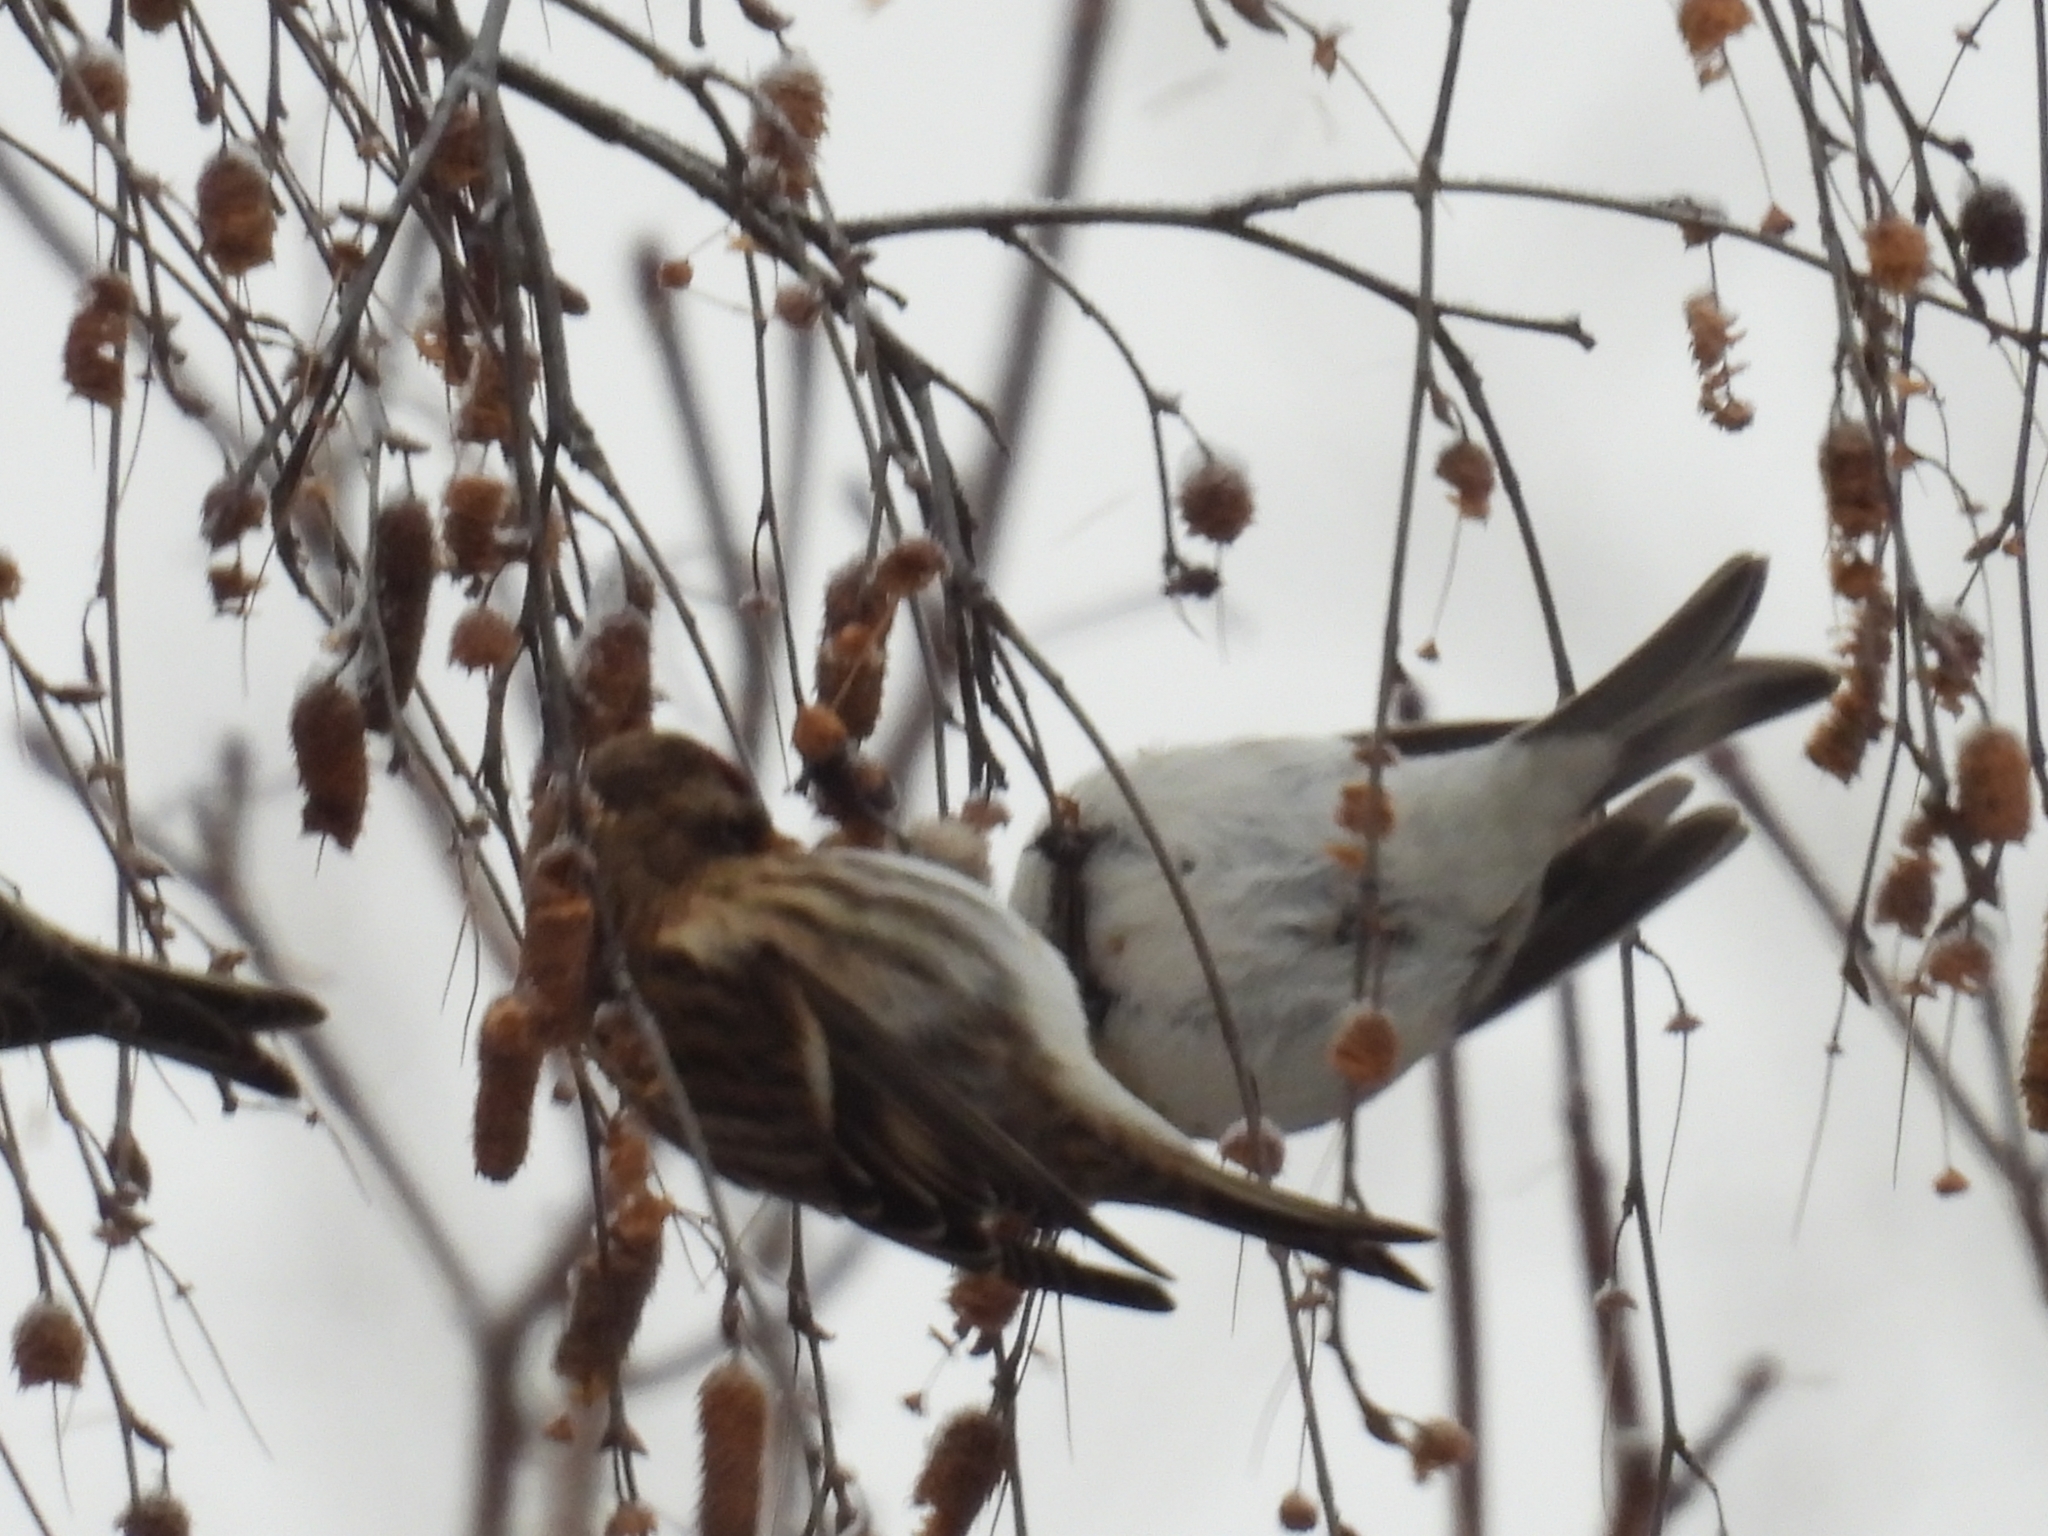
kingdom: Animalia
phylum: Chordata
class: Aves
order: Passeriformes
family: Fringillidae
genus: Acanthis
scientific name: Acanthis flammea
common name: Common redpoll
